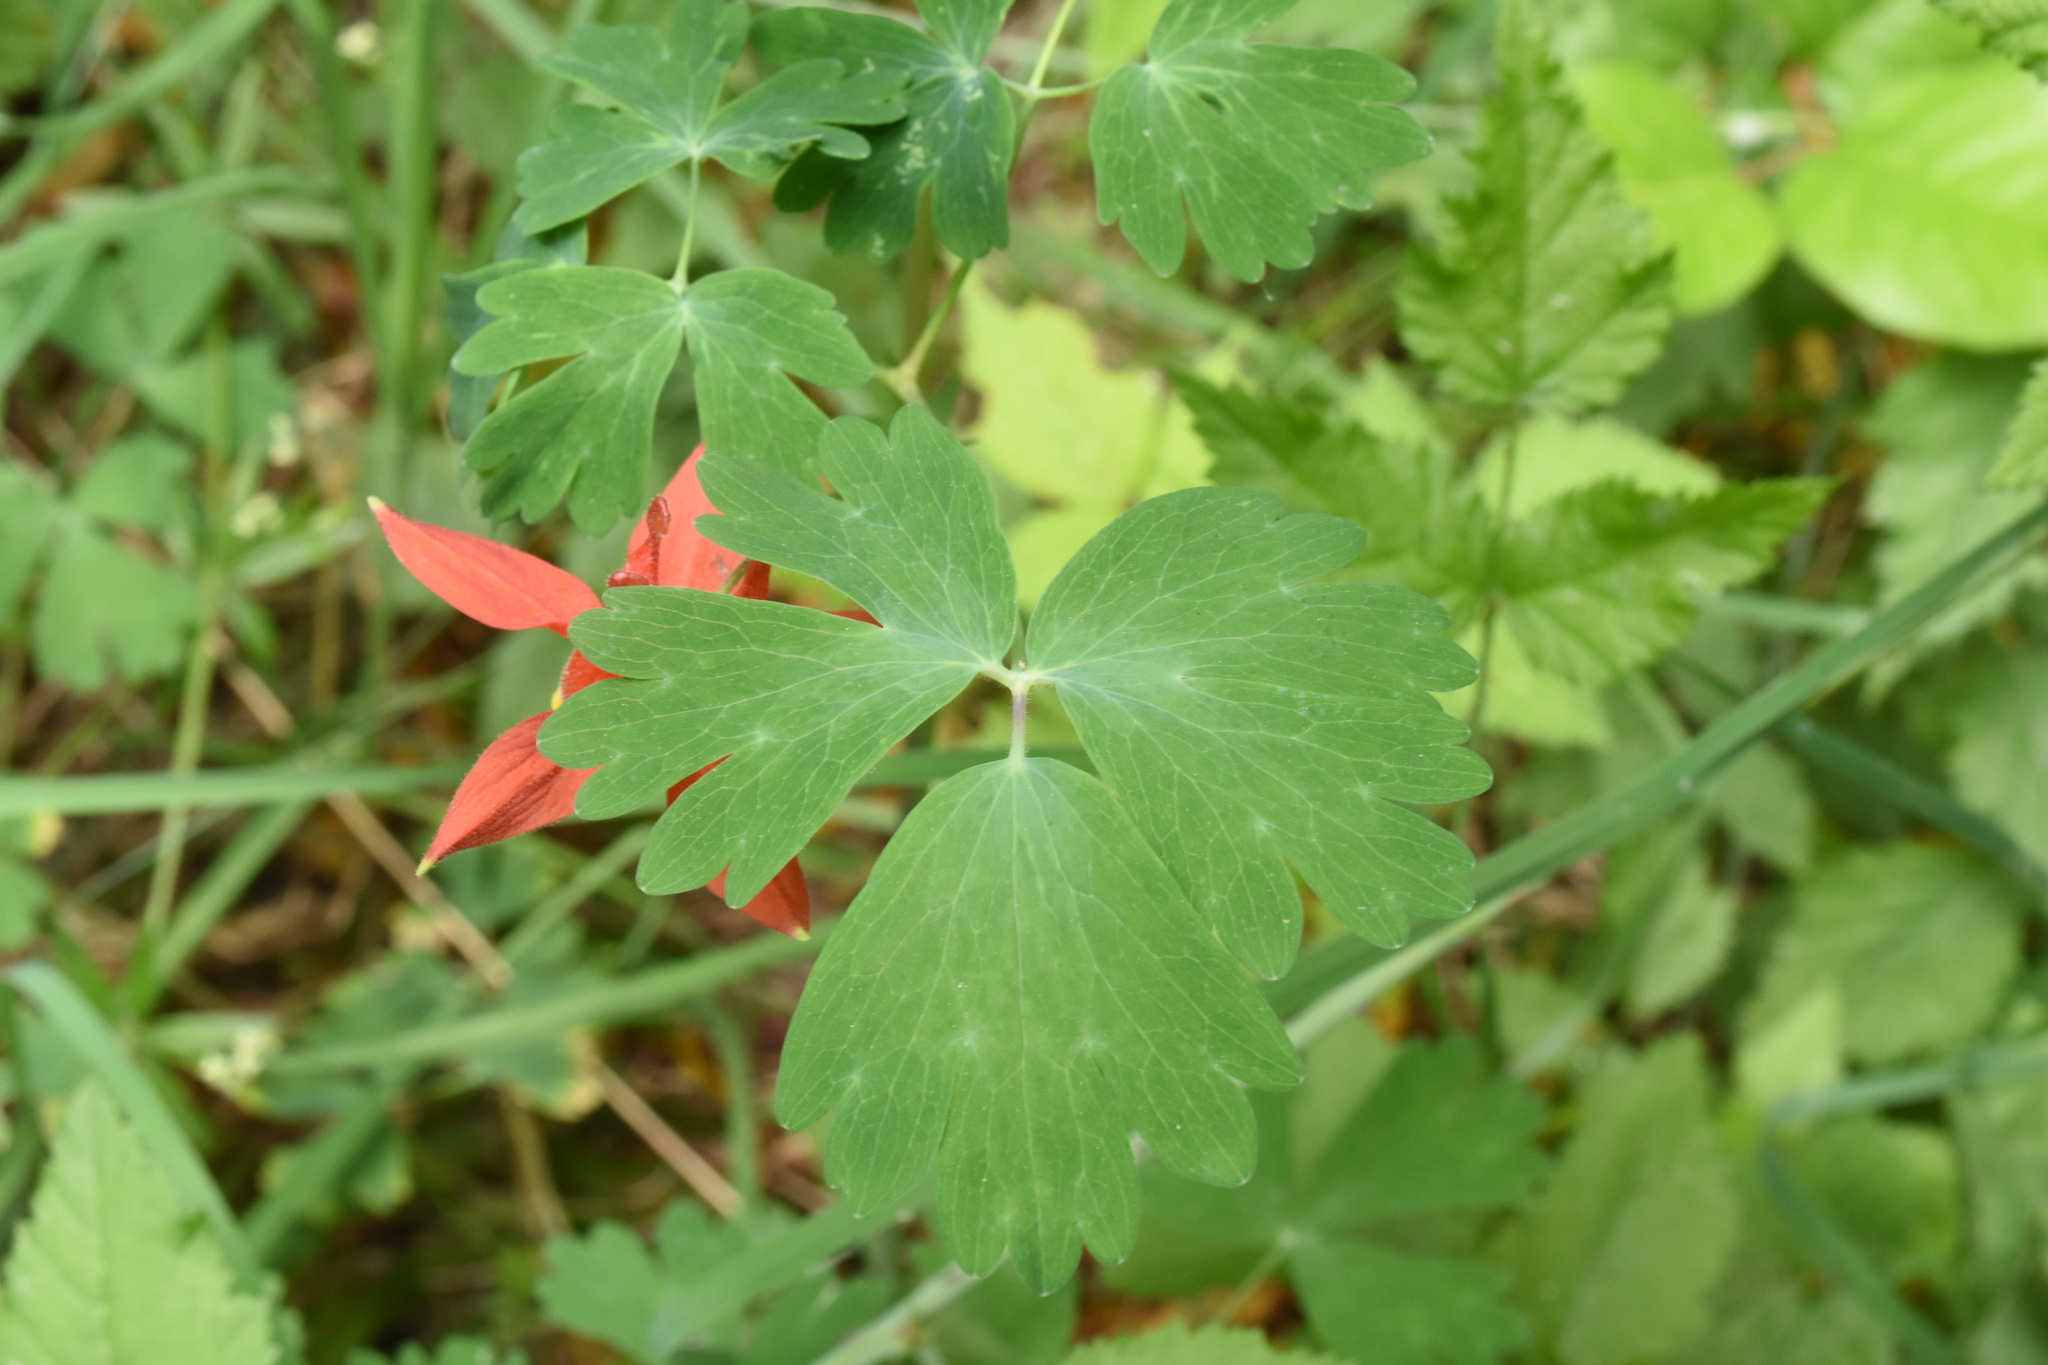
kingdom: Plantae
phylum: Tracheophyta
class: Magnoliopsida
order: Ranunculales
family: Ranunculaceae
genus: Aquilegia
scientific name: Aquilegia formosa
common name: Sitka columbine
